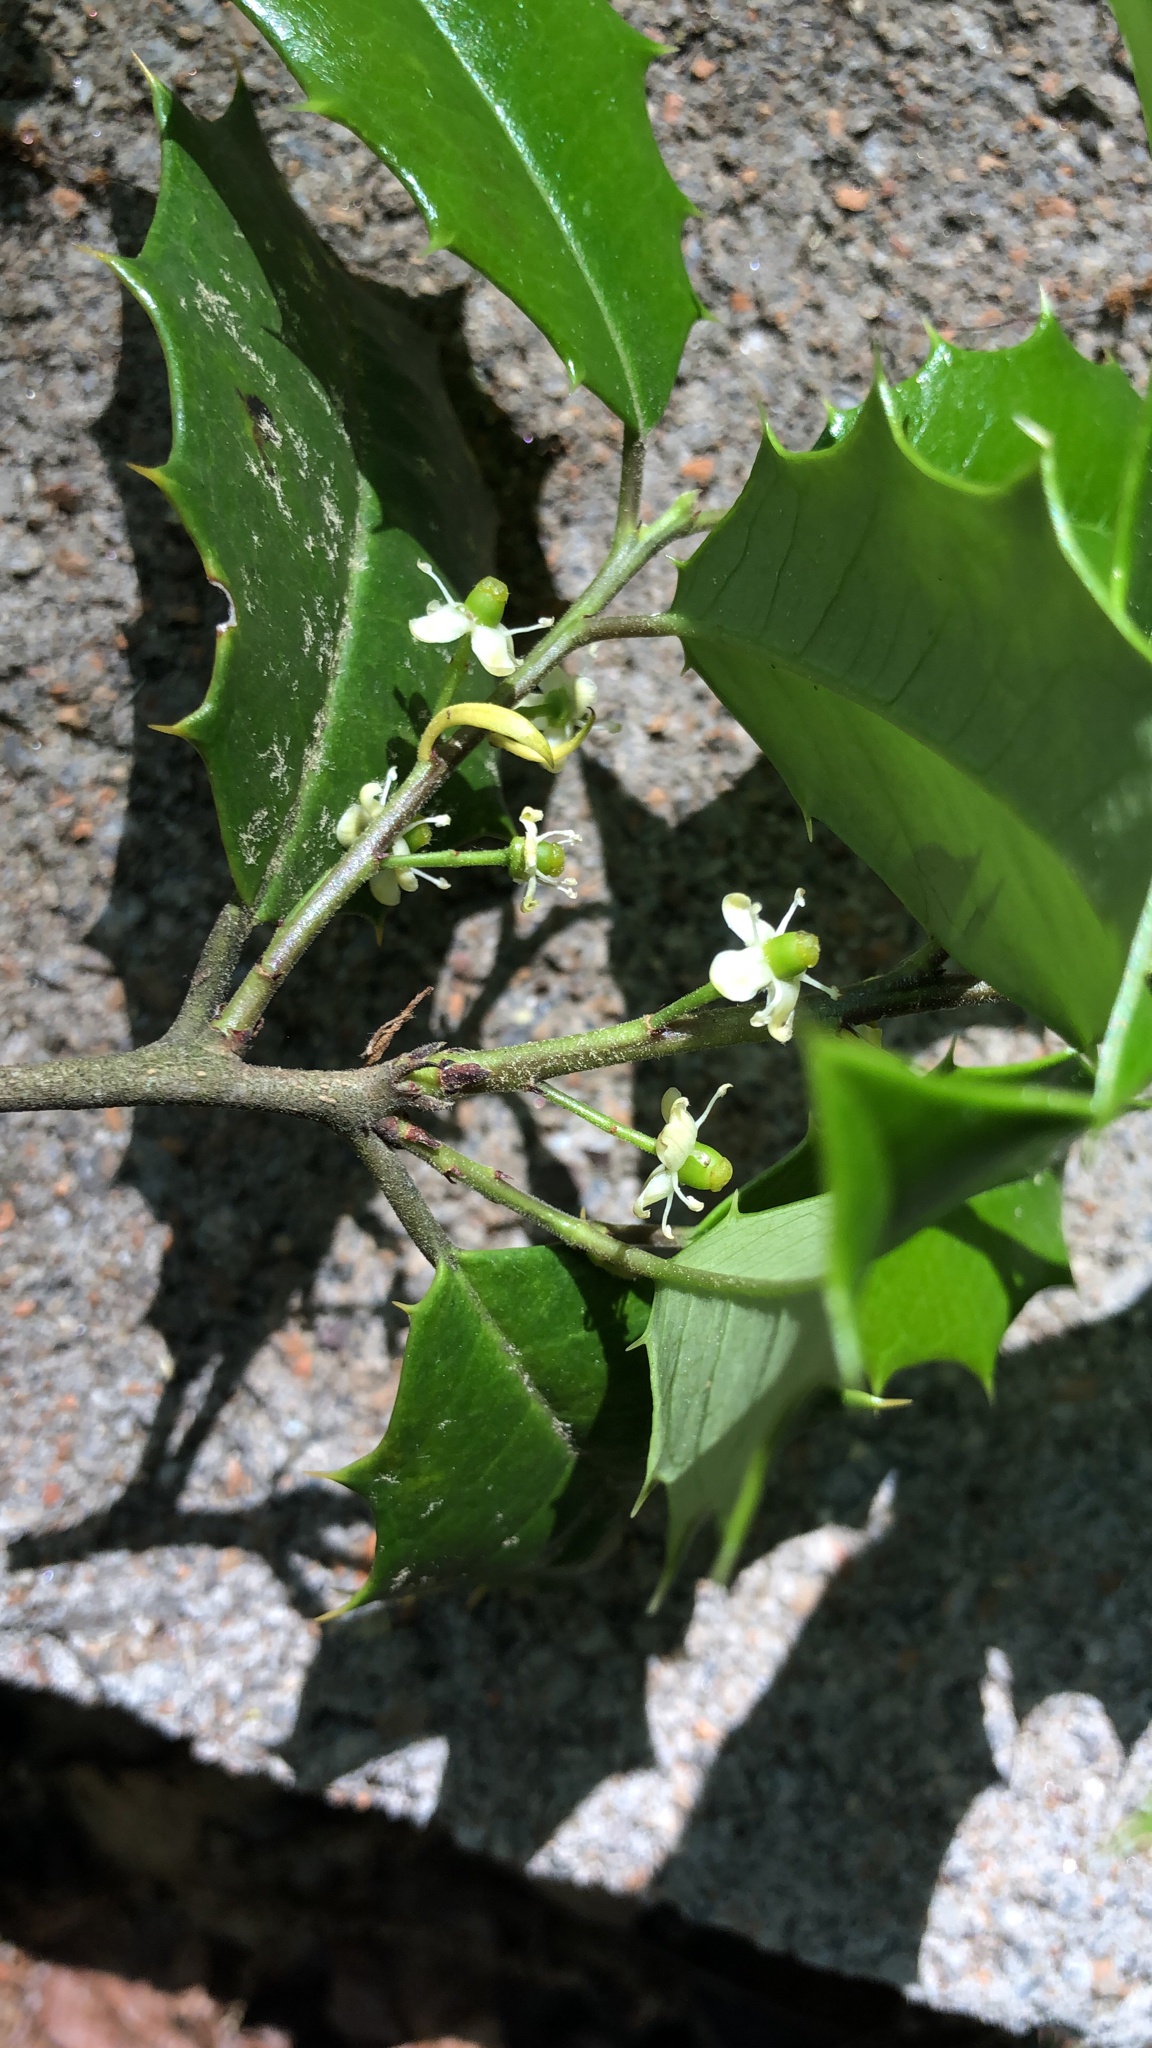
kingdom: Plantae
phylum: Tracheophyta
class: Magnoliopsida
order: Aquifoliales
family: Aquifoliaceae
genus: Ilex
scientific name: Ilex opaca
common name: American holly
